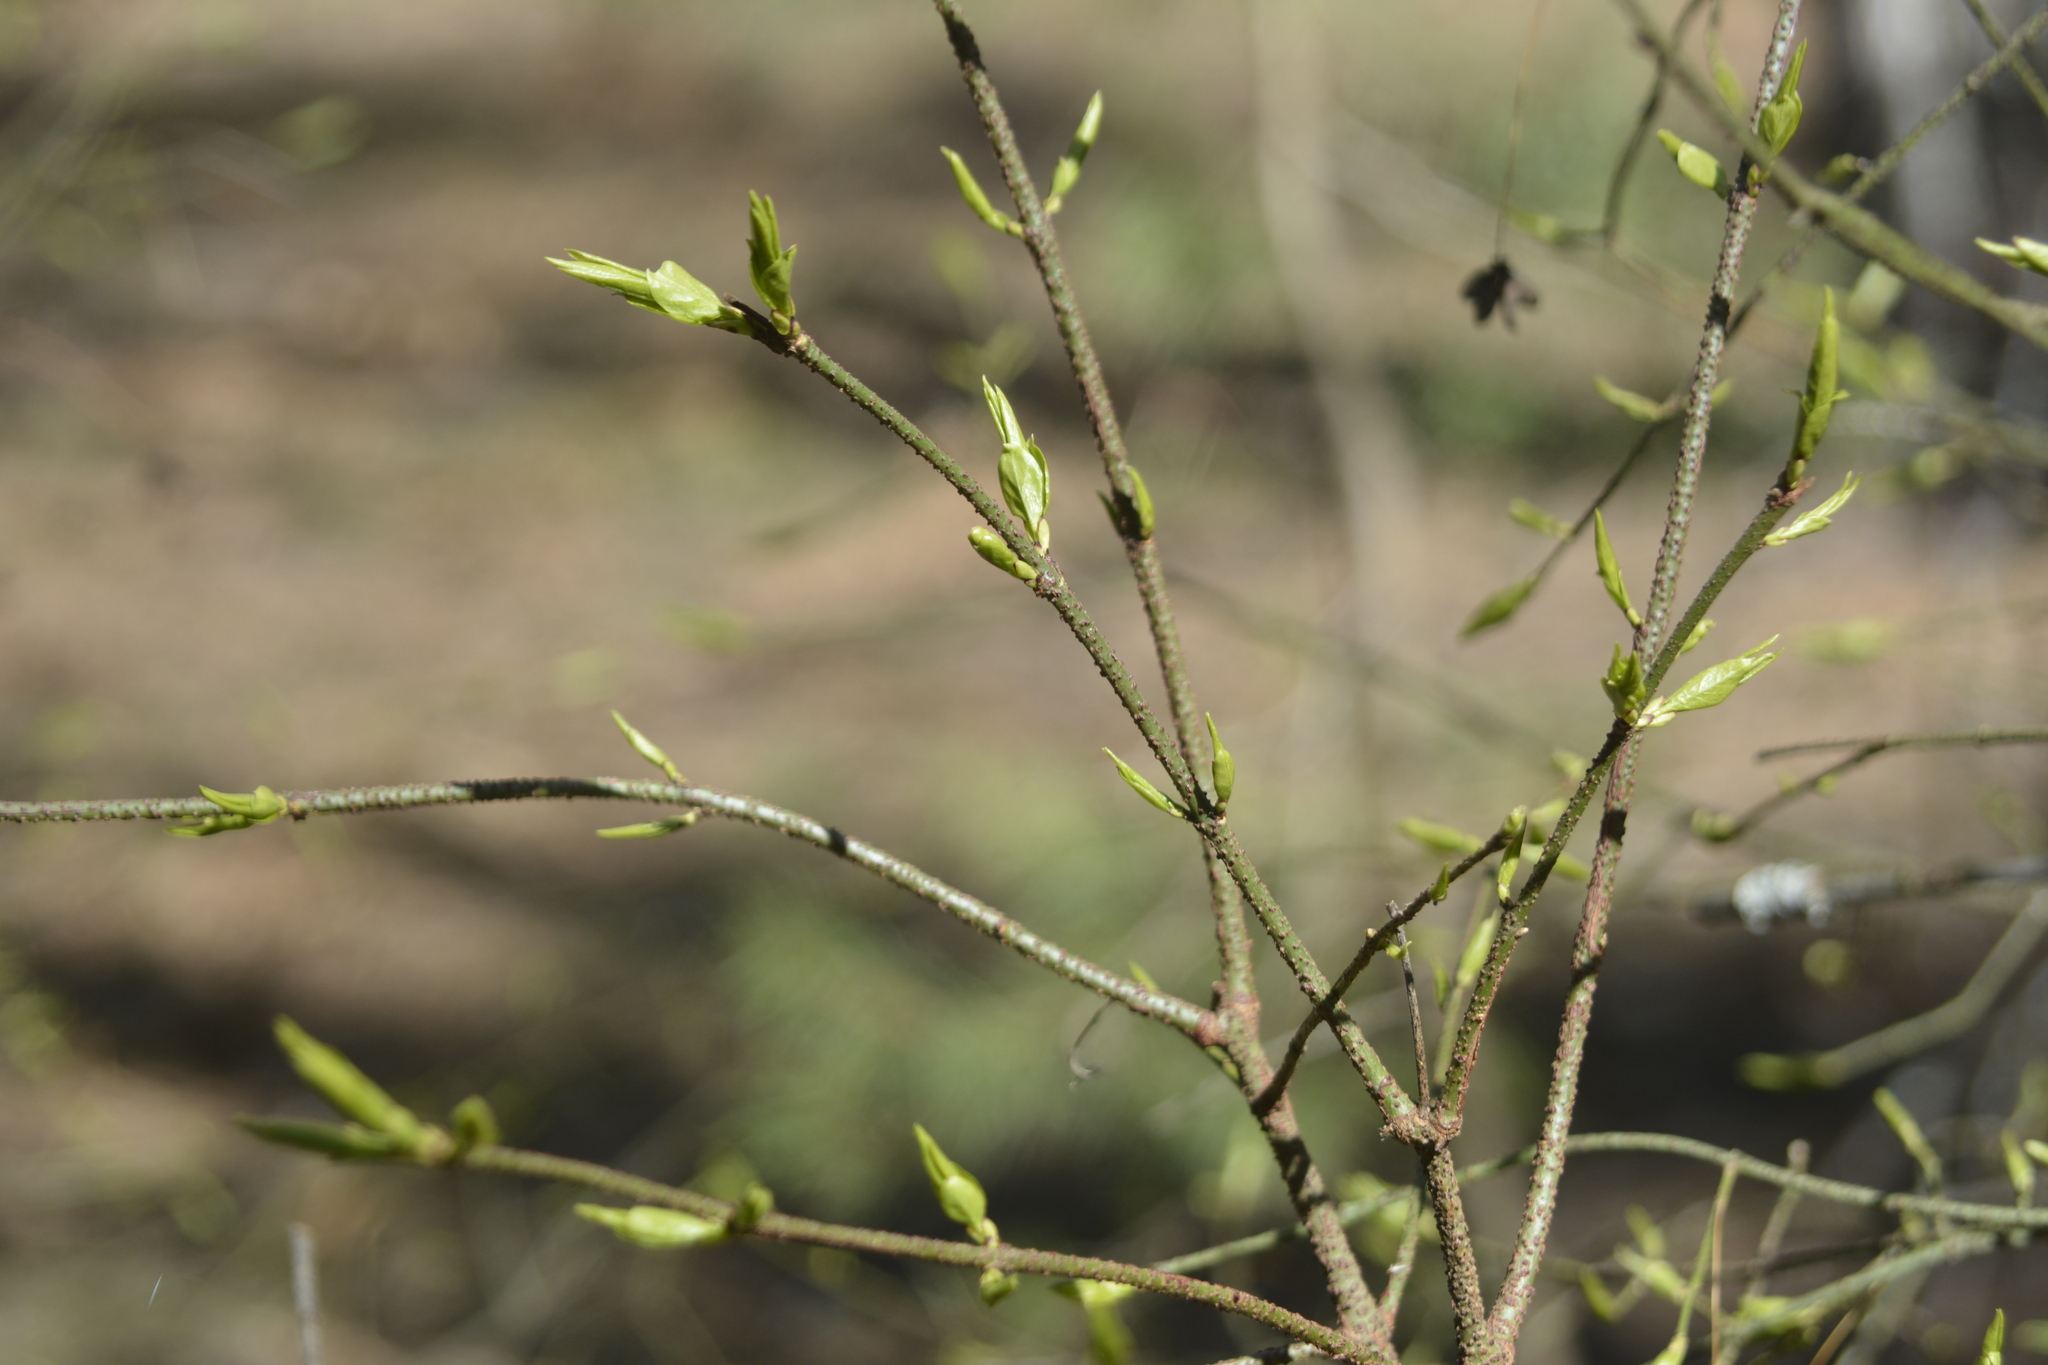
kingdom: Plantae
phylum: Tracheophyta
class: Magnoliopsida
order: Celastrales
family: Celastraceae
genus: Euonymus
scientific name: Euonymus verrucosus
